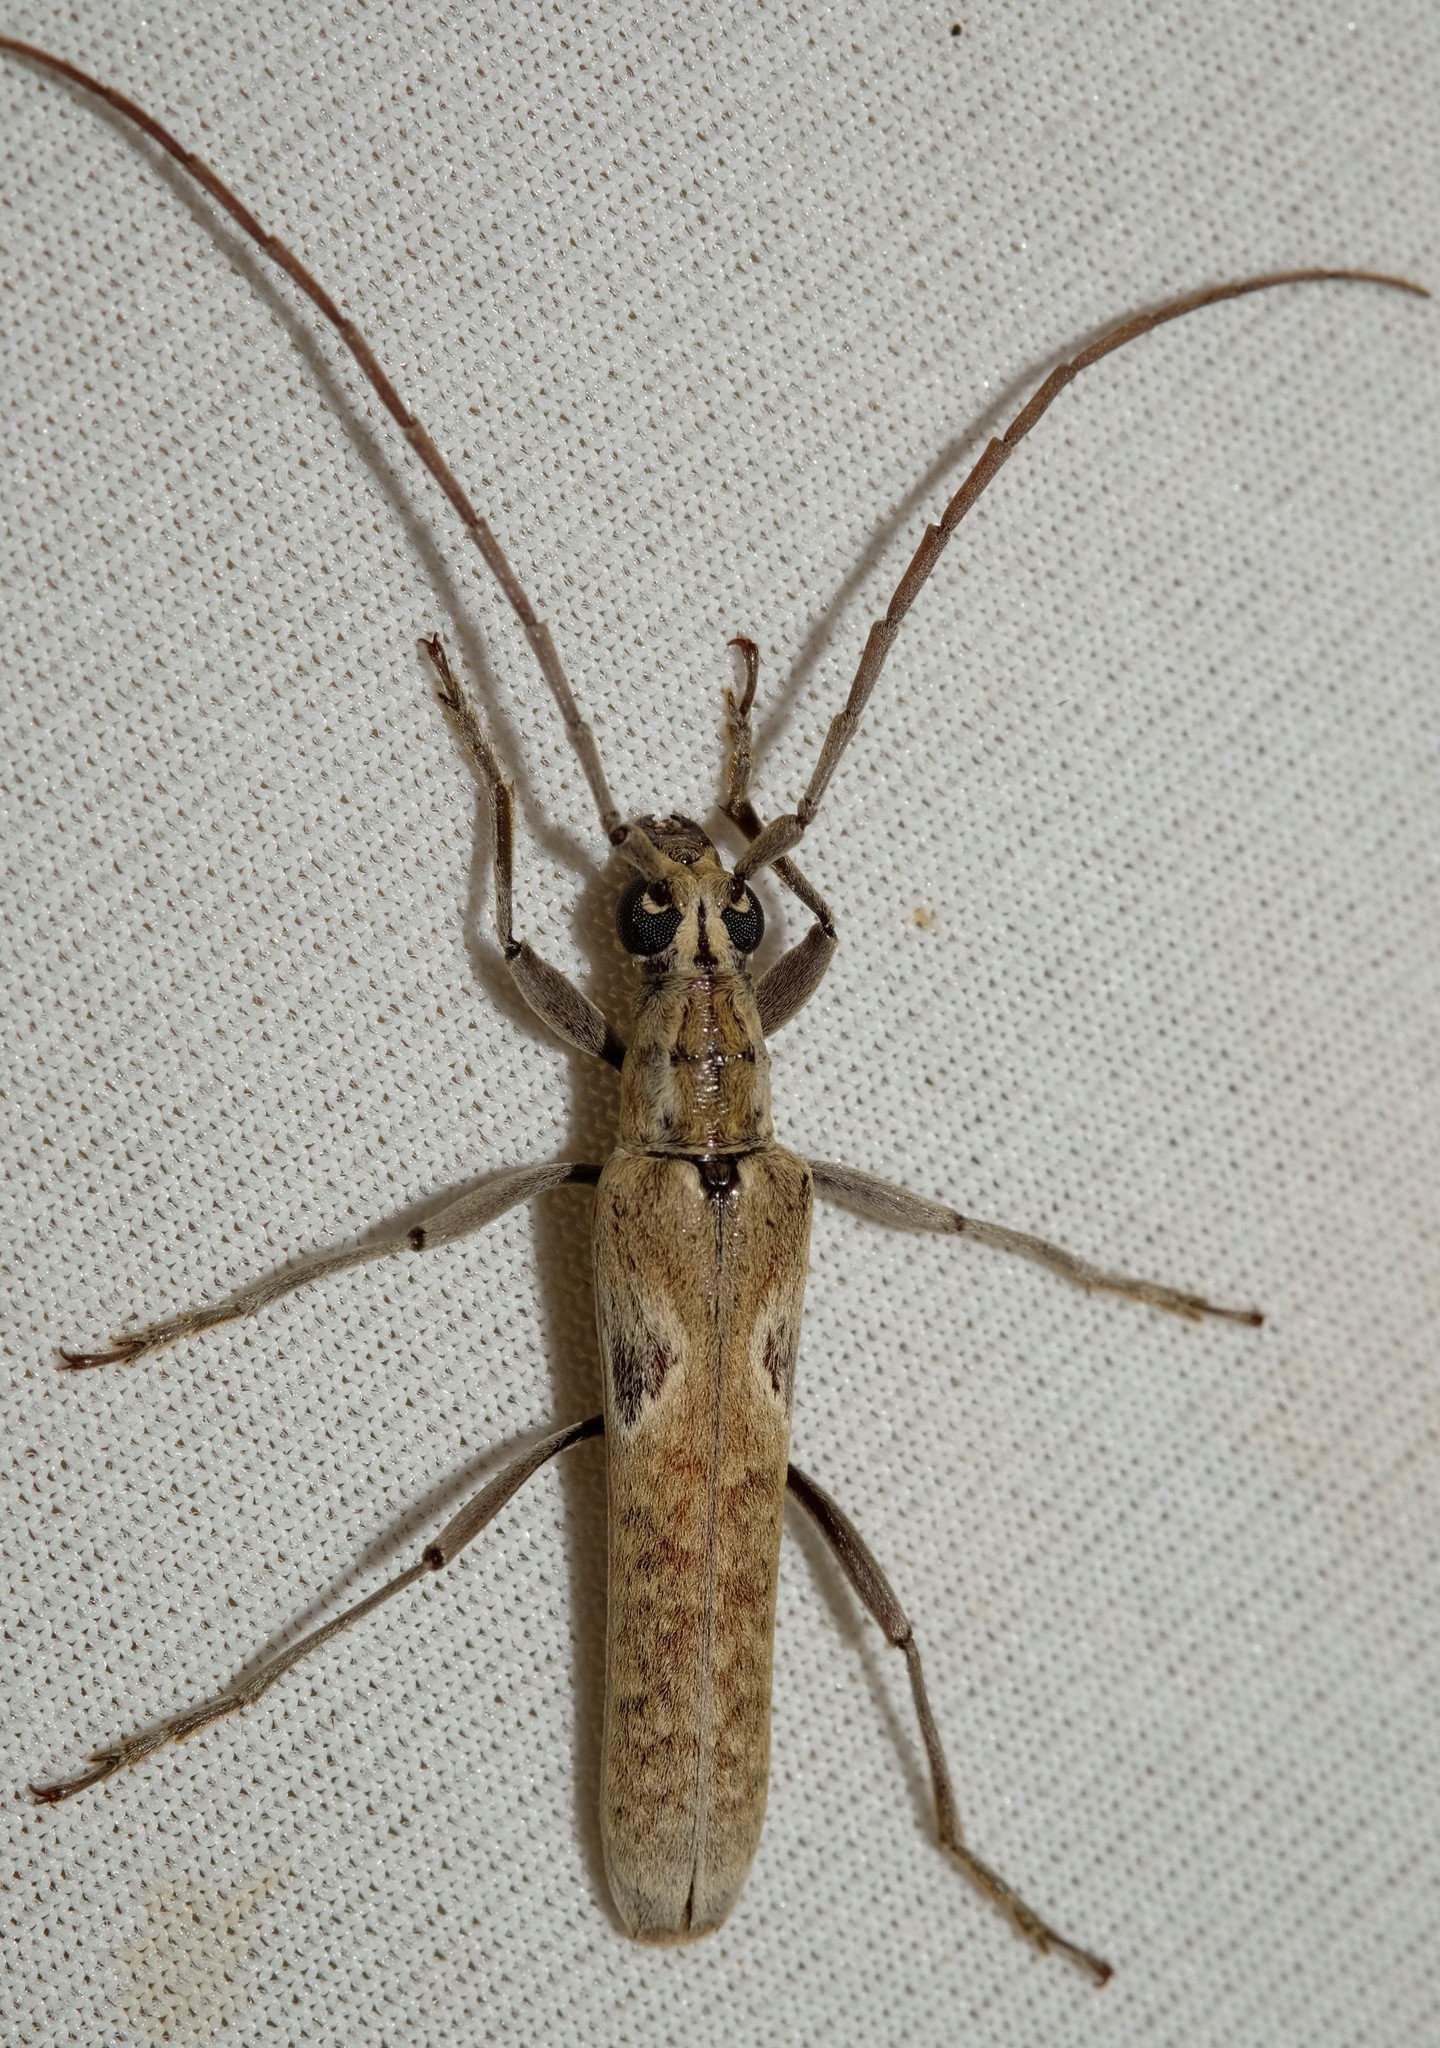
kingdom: Animalia
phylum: Arthropoda
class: Insecta
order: Coleoptera
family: Cerambycidae
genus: Uracanthus
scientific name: Uracanthus maculatus
